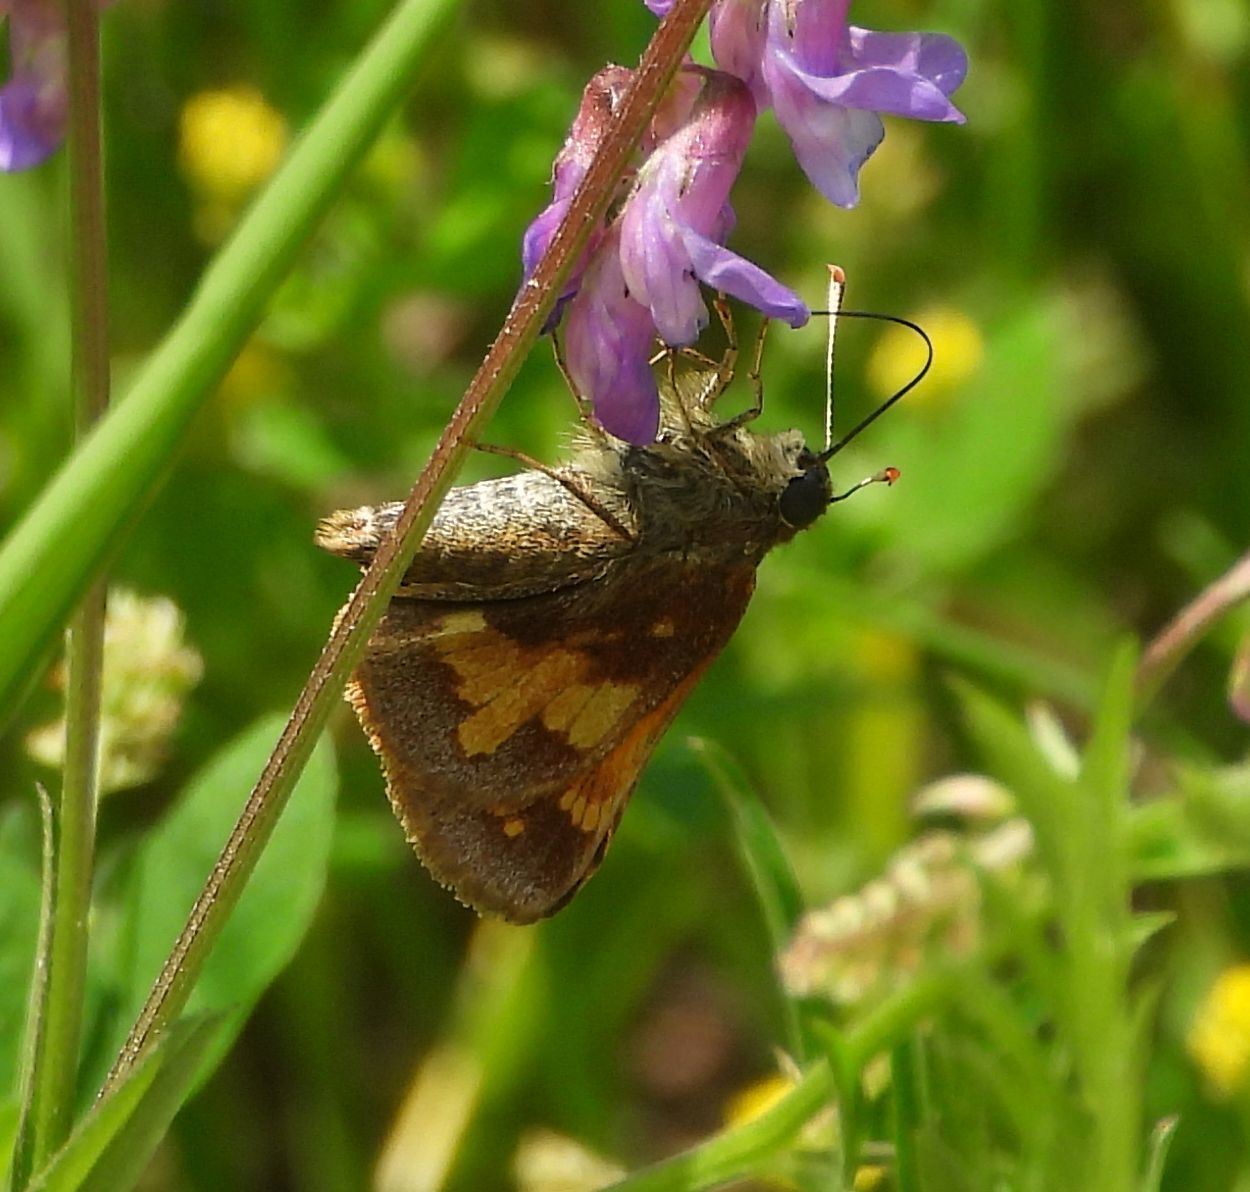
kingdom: Animalia
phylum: Arthropoda
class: Insecta
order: Lepidoptera
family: Hesperiidae
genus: Lon
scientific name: Lon hobomok
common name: Hobomok skipper
